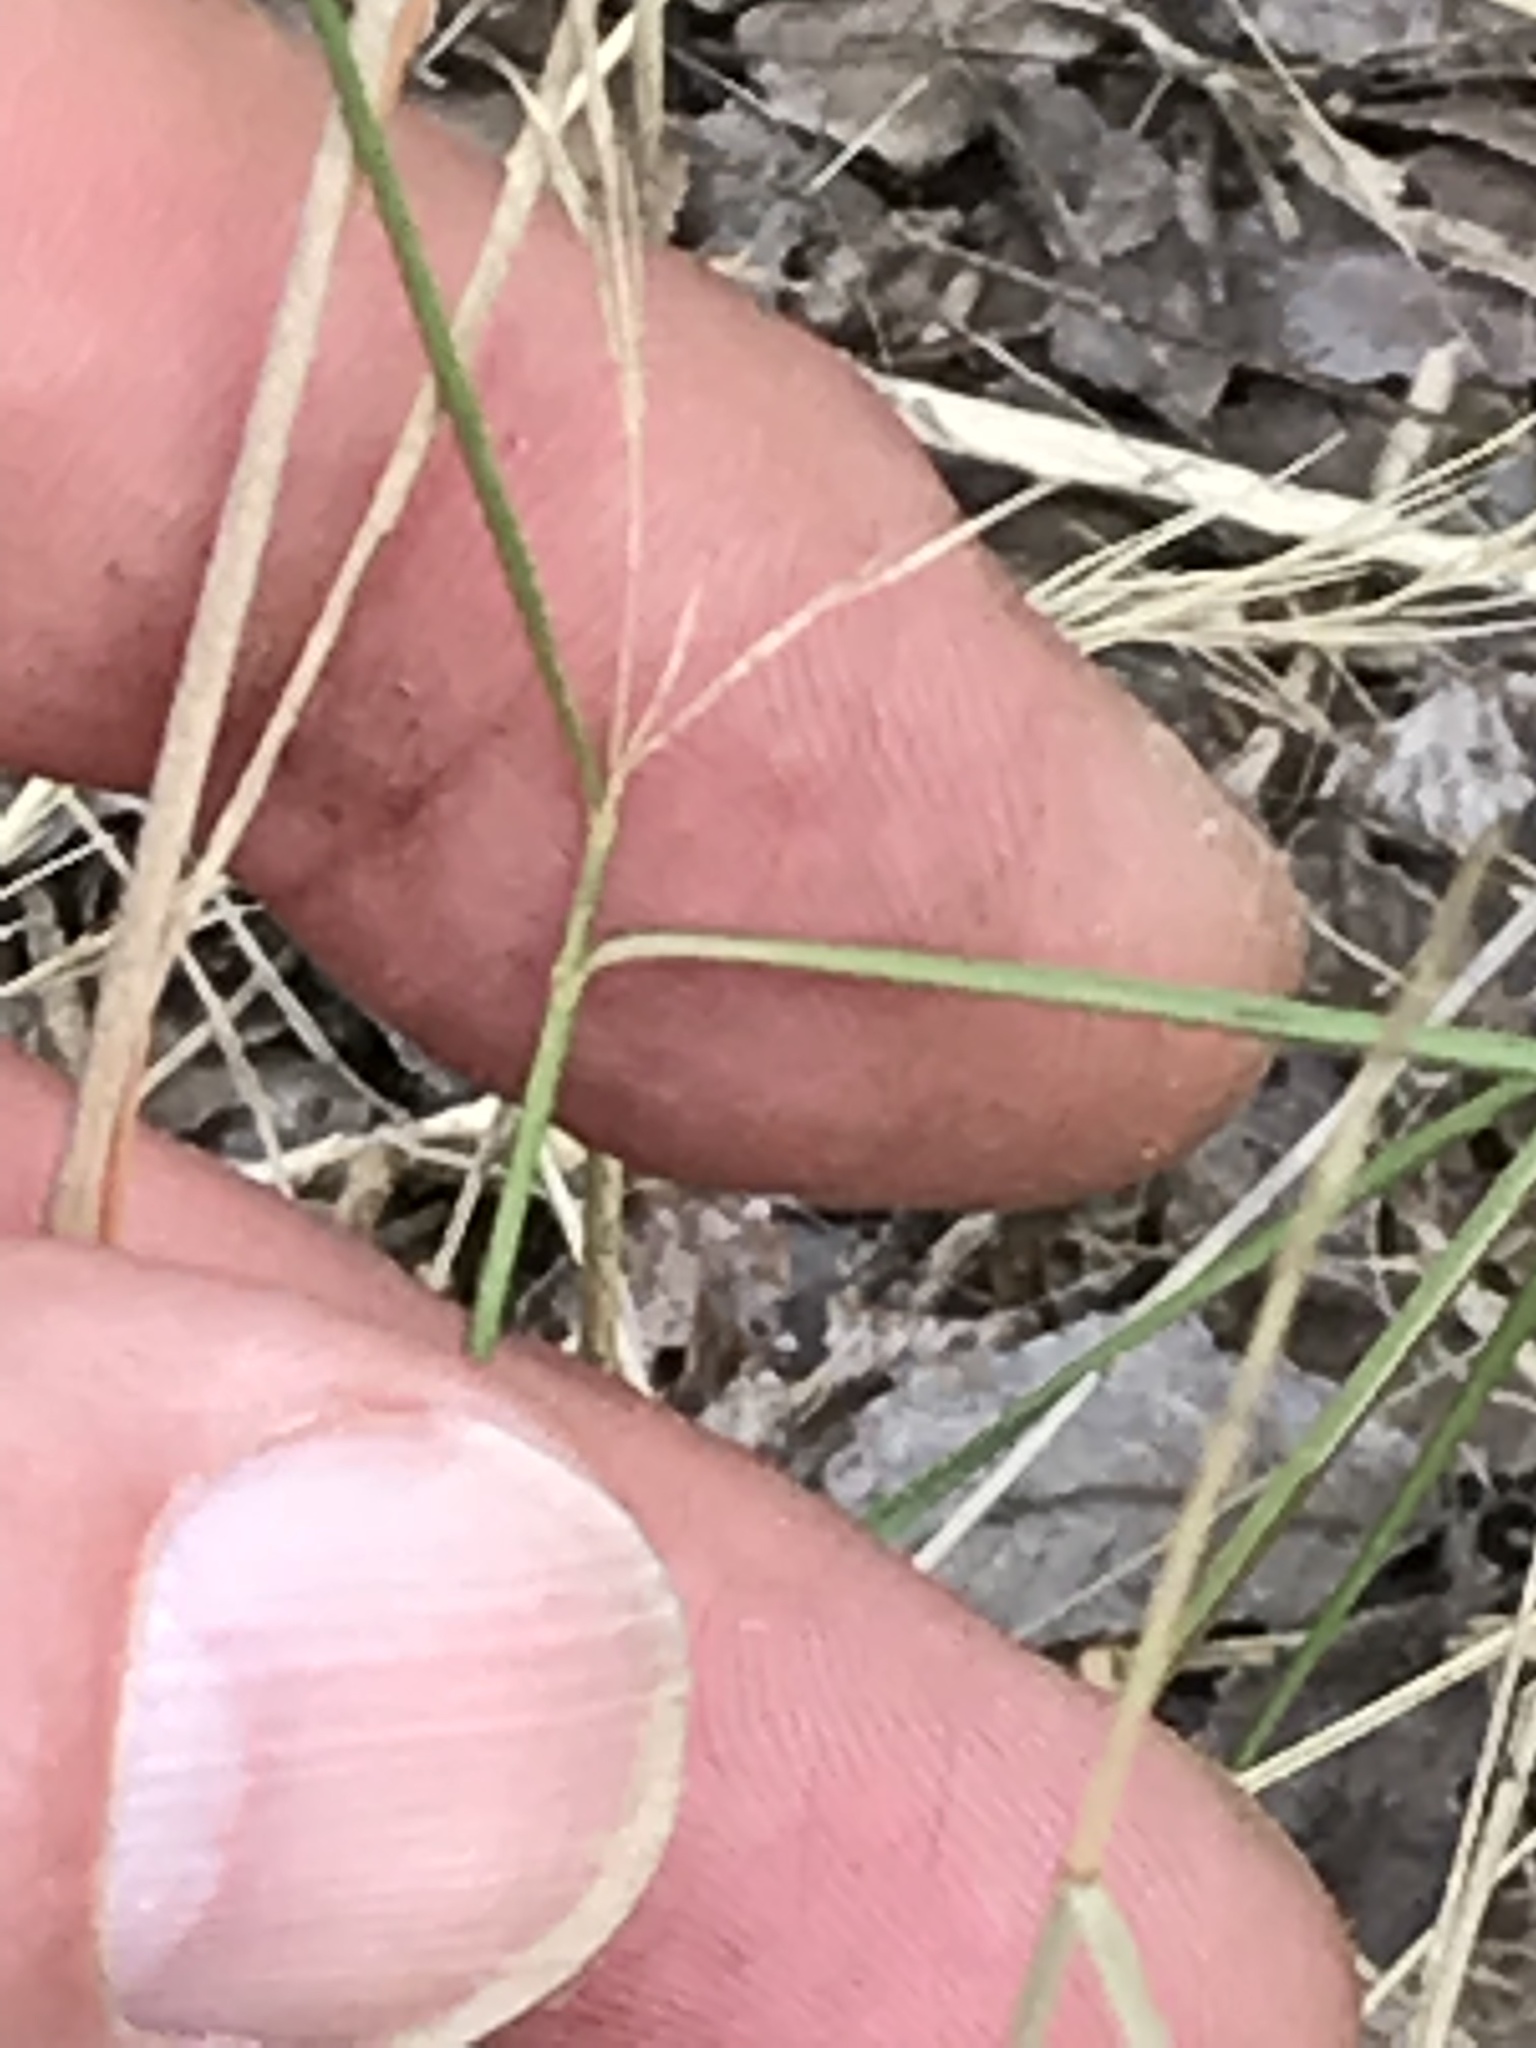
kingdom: Plantae
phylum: Tracheophyta
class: Liliopsida
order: Poales
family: Poaceae
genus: Aristida
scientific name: Aristida
